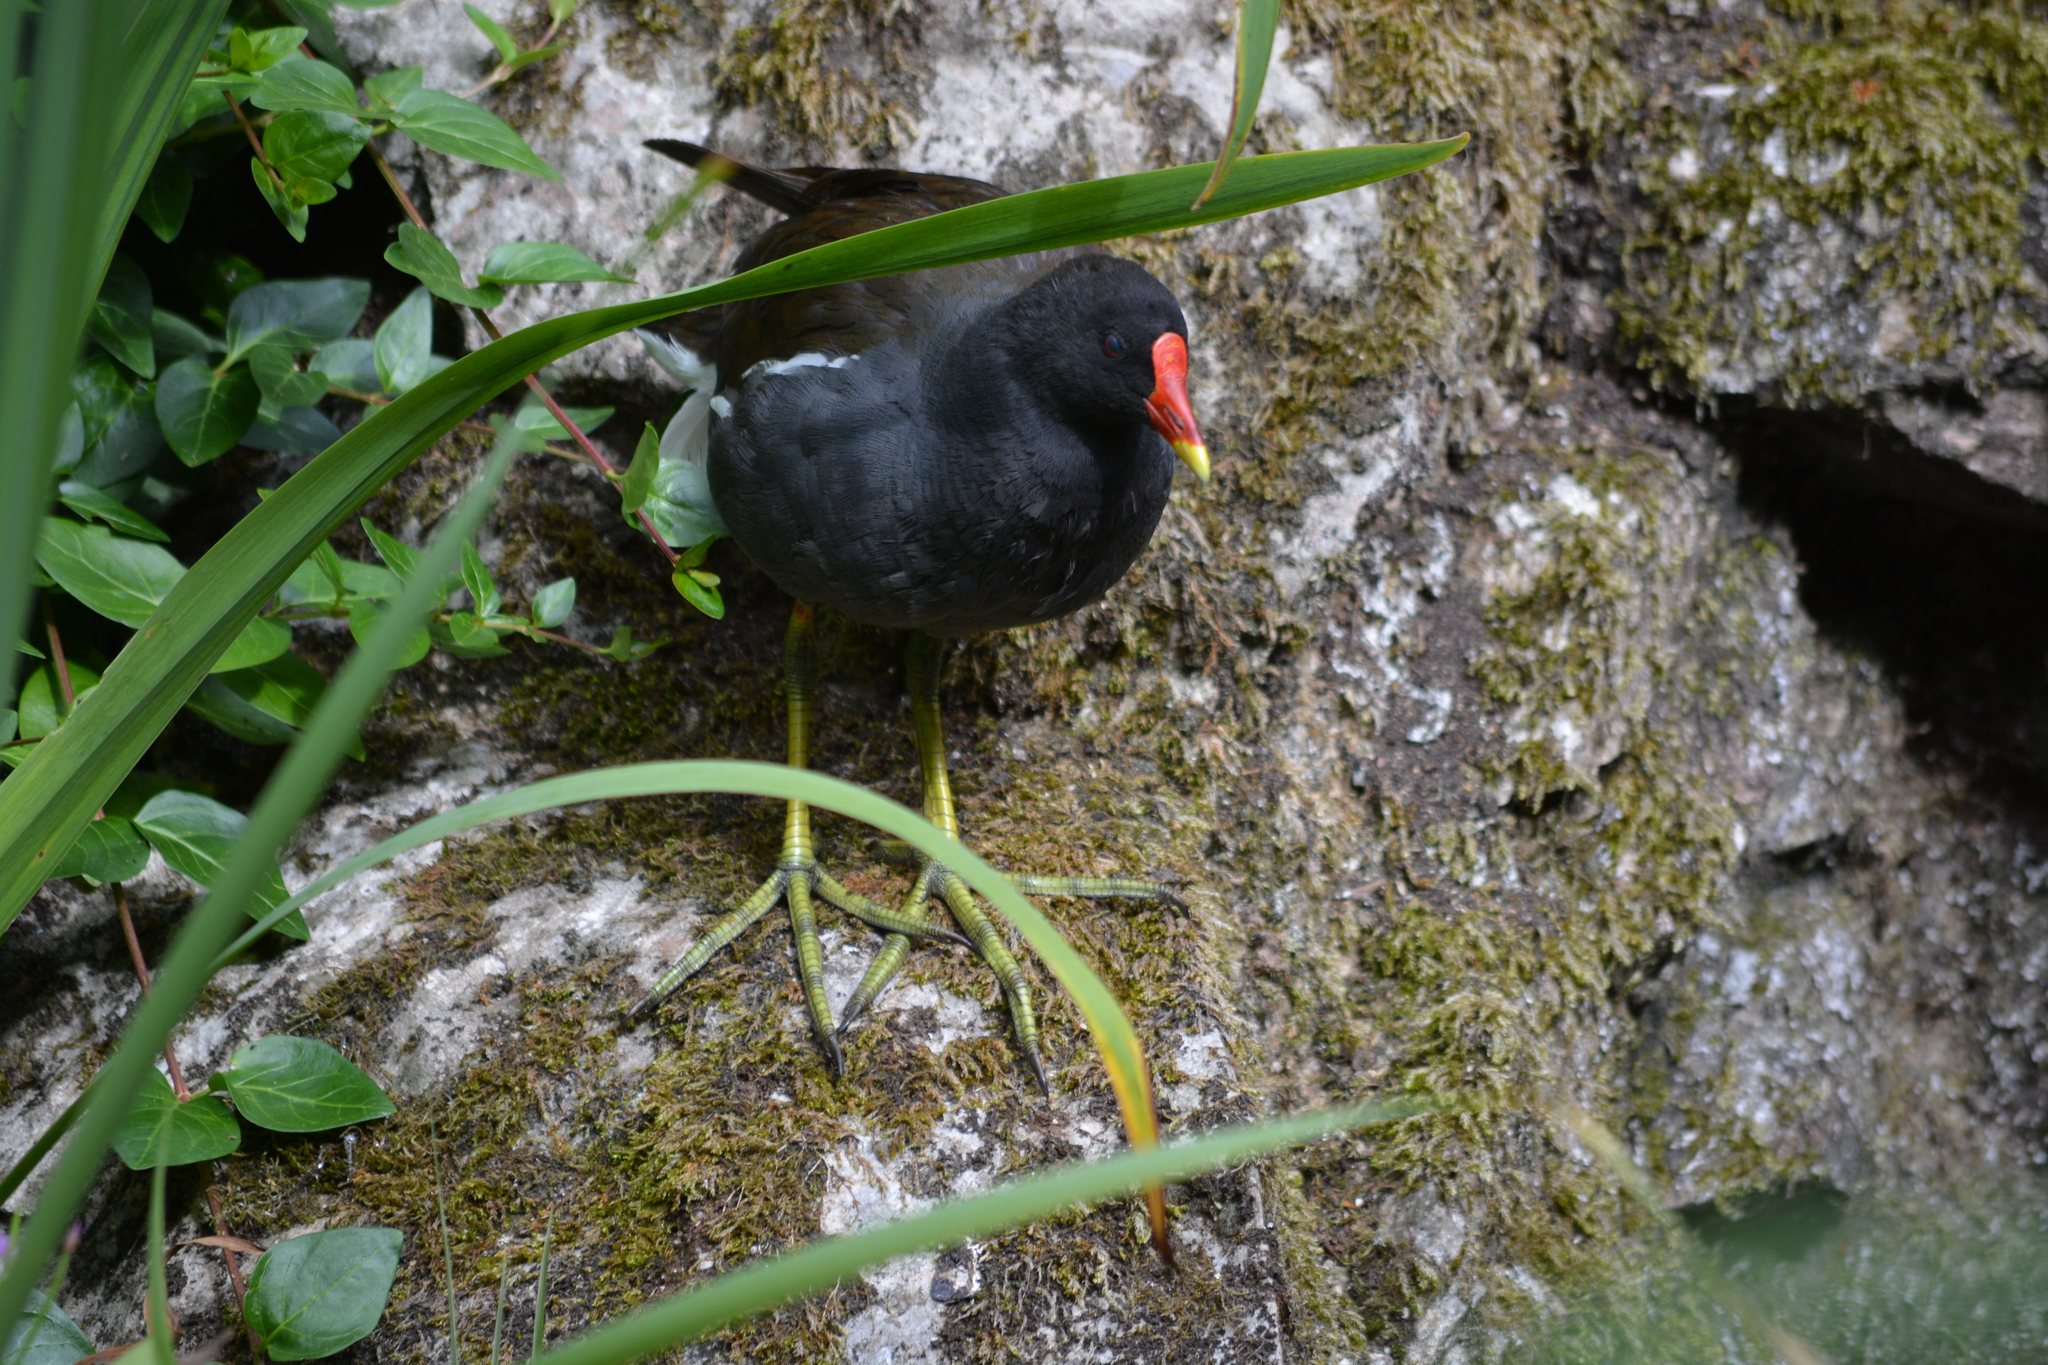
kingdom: Animalia
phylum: Chordata
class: Aves
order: Gruiformes
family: Rallidae
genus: Gallinula
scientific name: Gallinula chloropus
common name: Common moorhen
